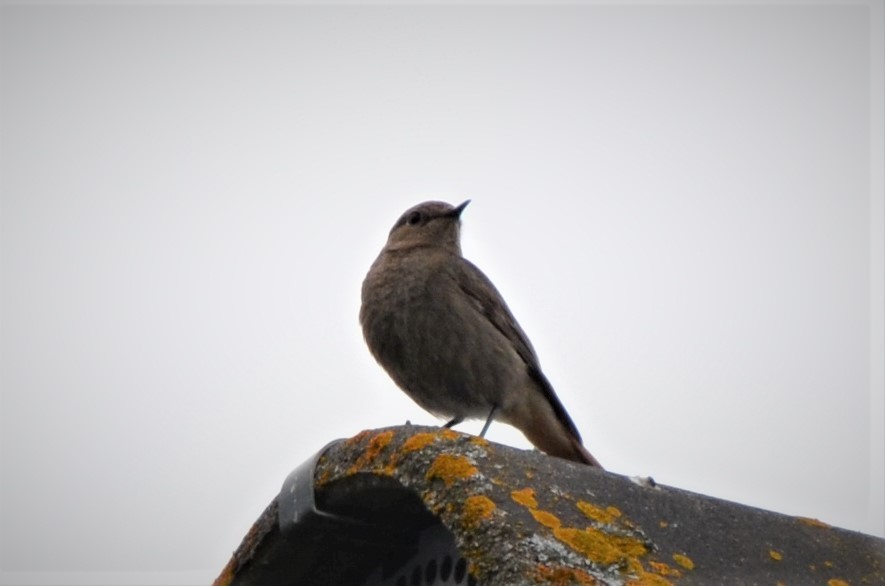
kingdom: Animalia
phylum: Chordata
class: Aves
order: Passeriformes
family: Muscicapidae
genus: Phoenicurus
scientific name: Phoenicurus ochruros
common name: Black redstart
